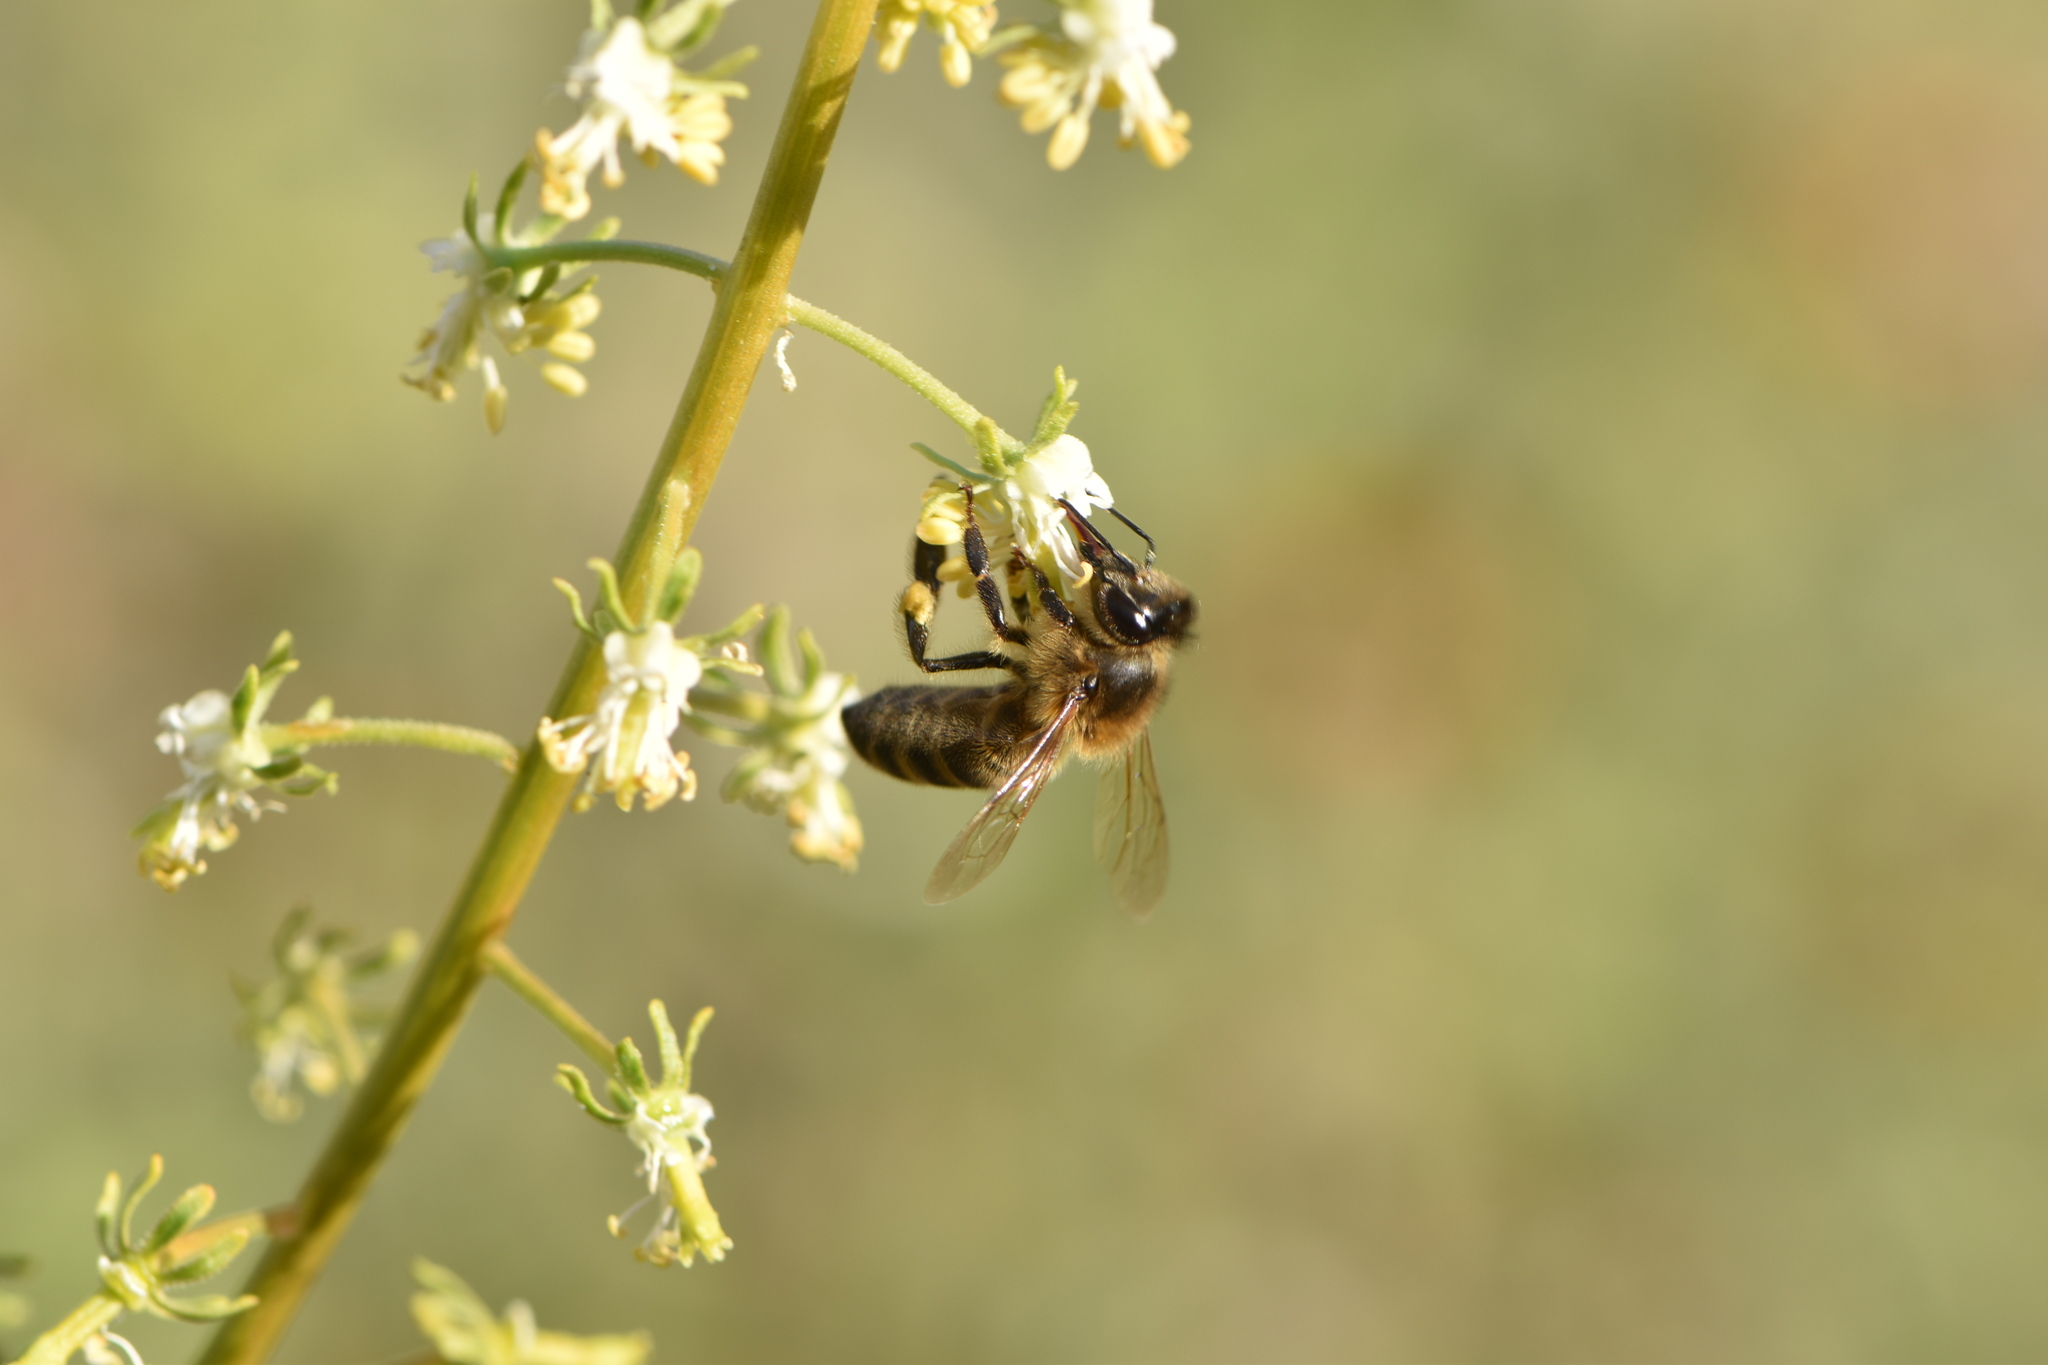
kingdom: Animalia
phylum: Arthropoda
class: Insecta
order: Hymenoptera
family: Apidae
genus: Apis
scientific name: Apis mellifera
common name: Honey bee
